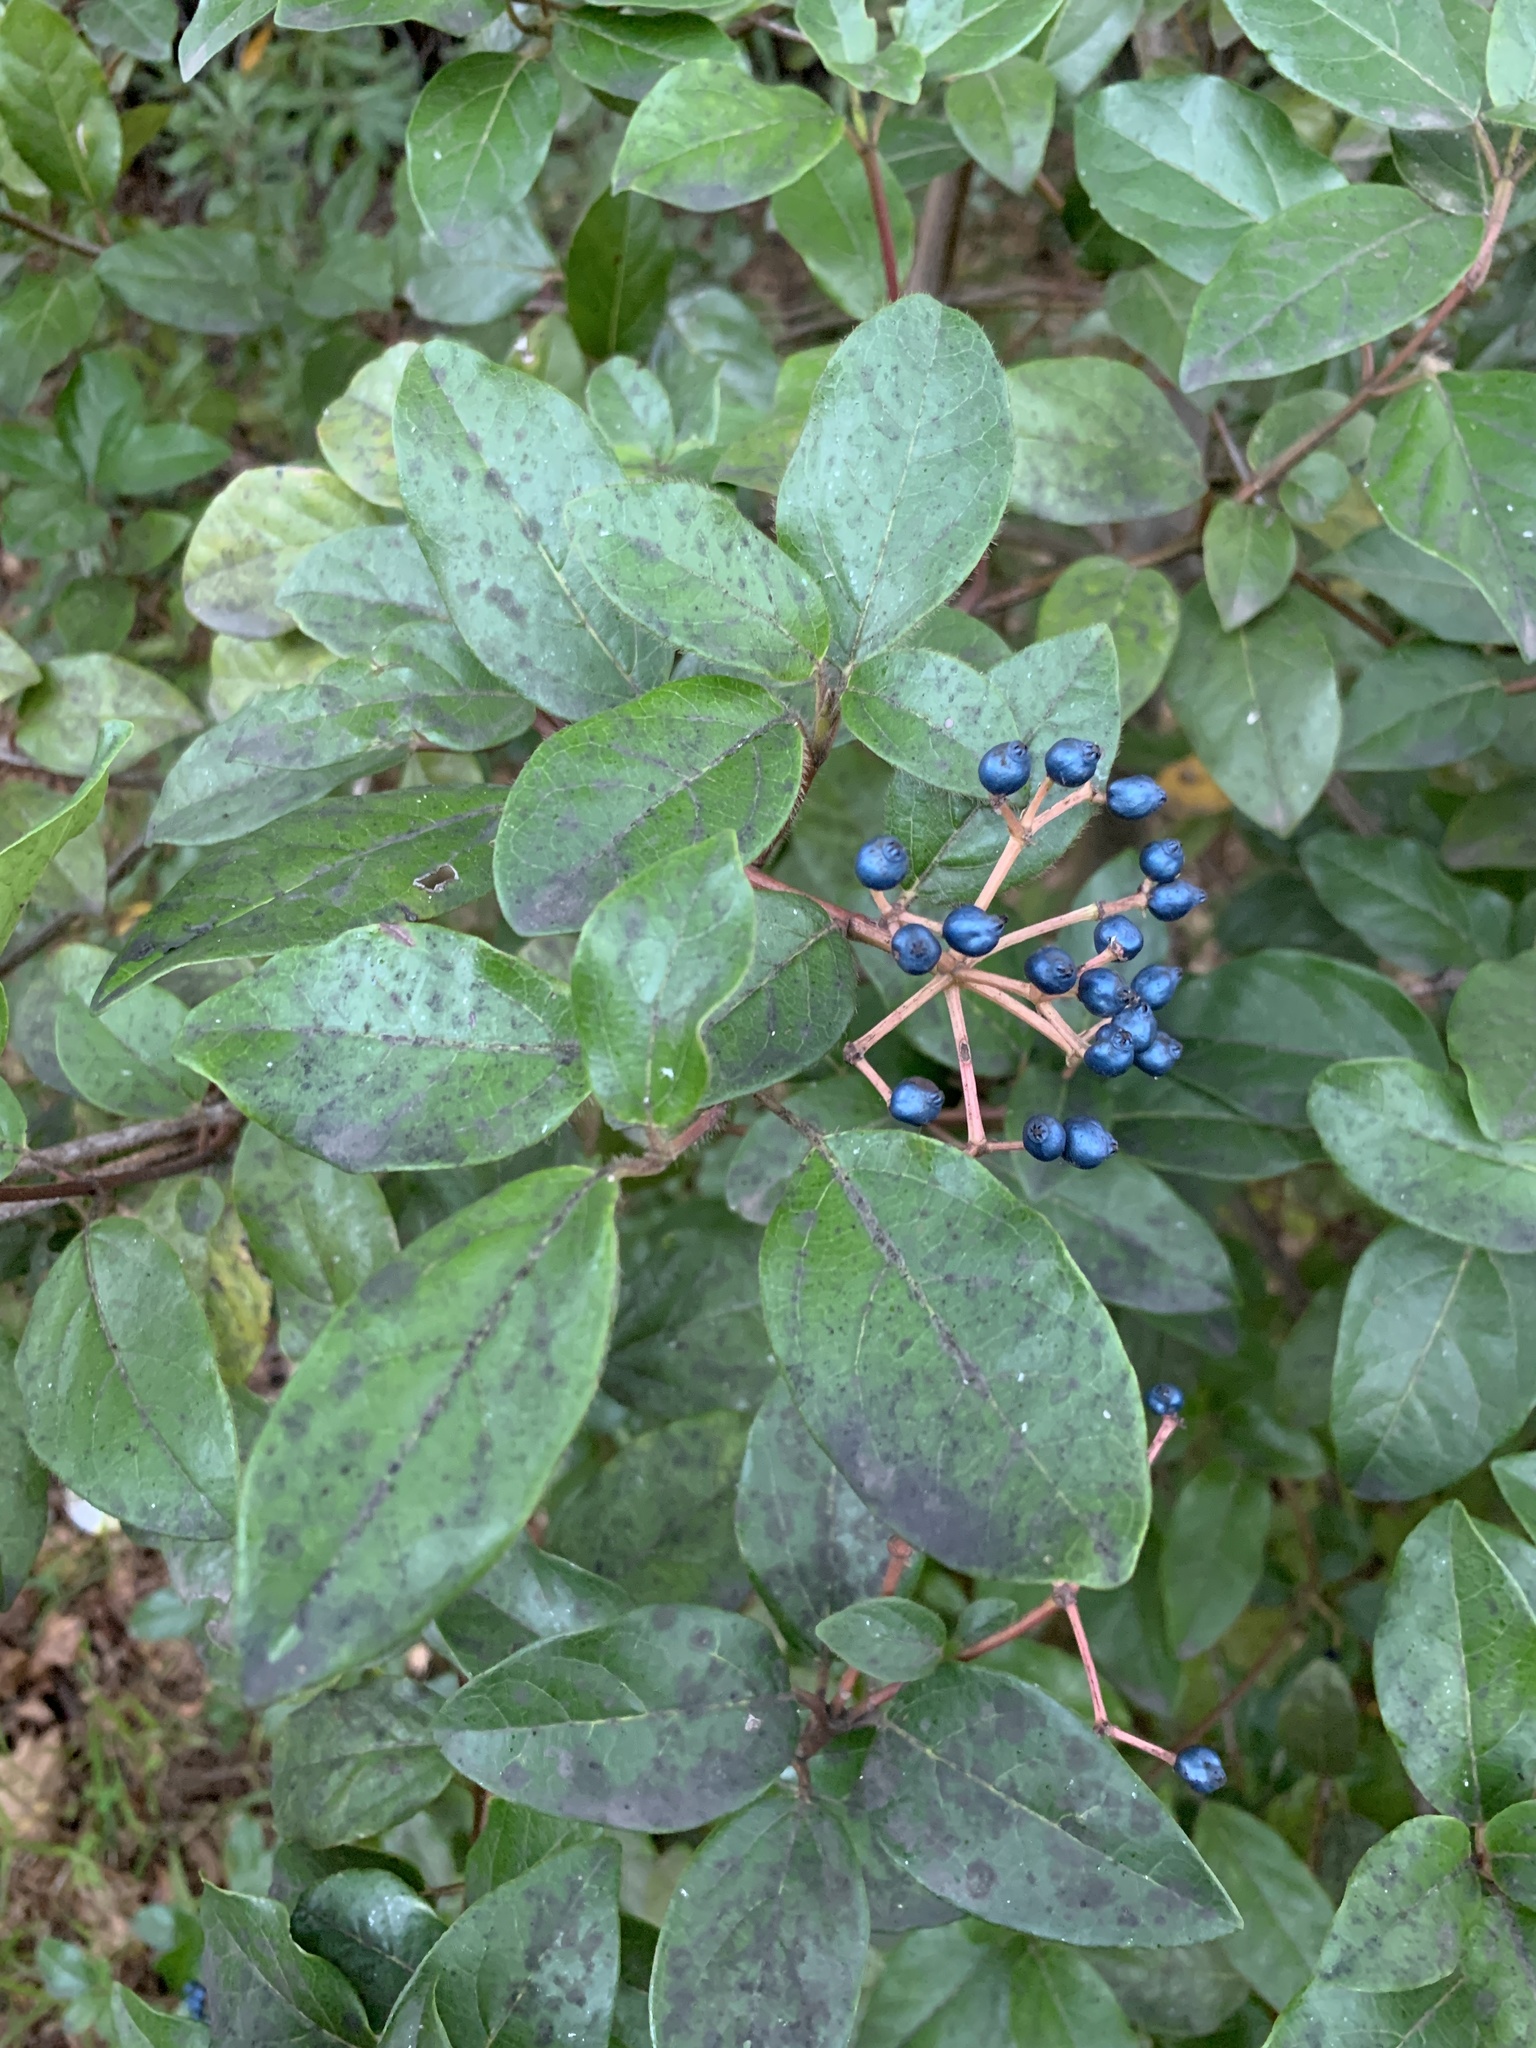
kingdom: Plantae
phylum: Tracheophyta
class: Magnoliopsida
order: Dipsacales
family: Viburnaceae
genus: Viburnum
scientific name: Viburnum tinus
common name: Laurustinus
